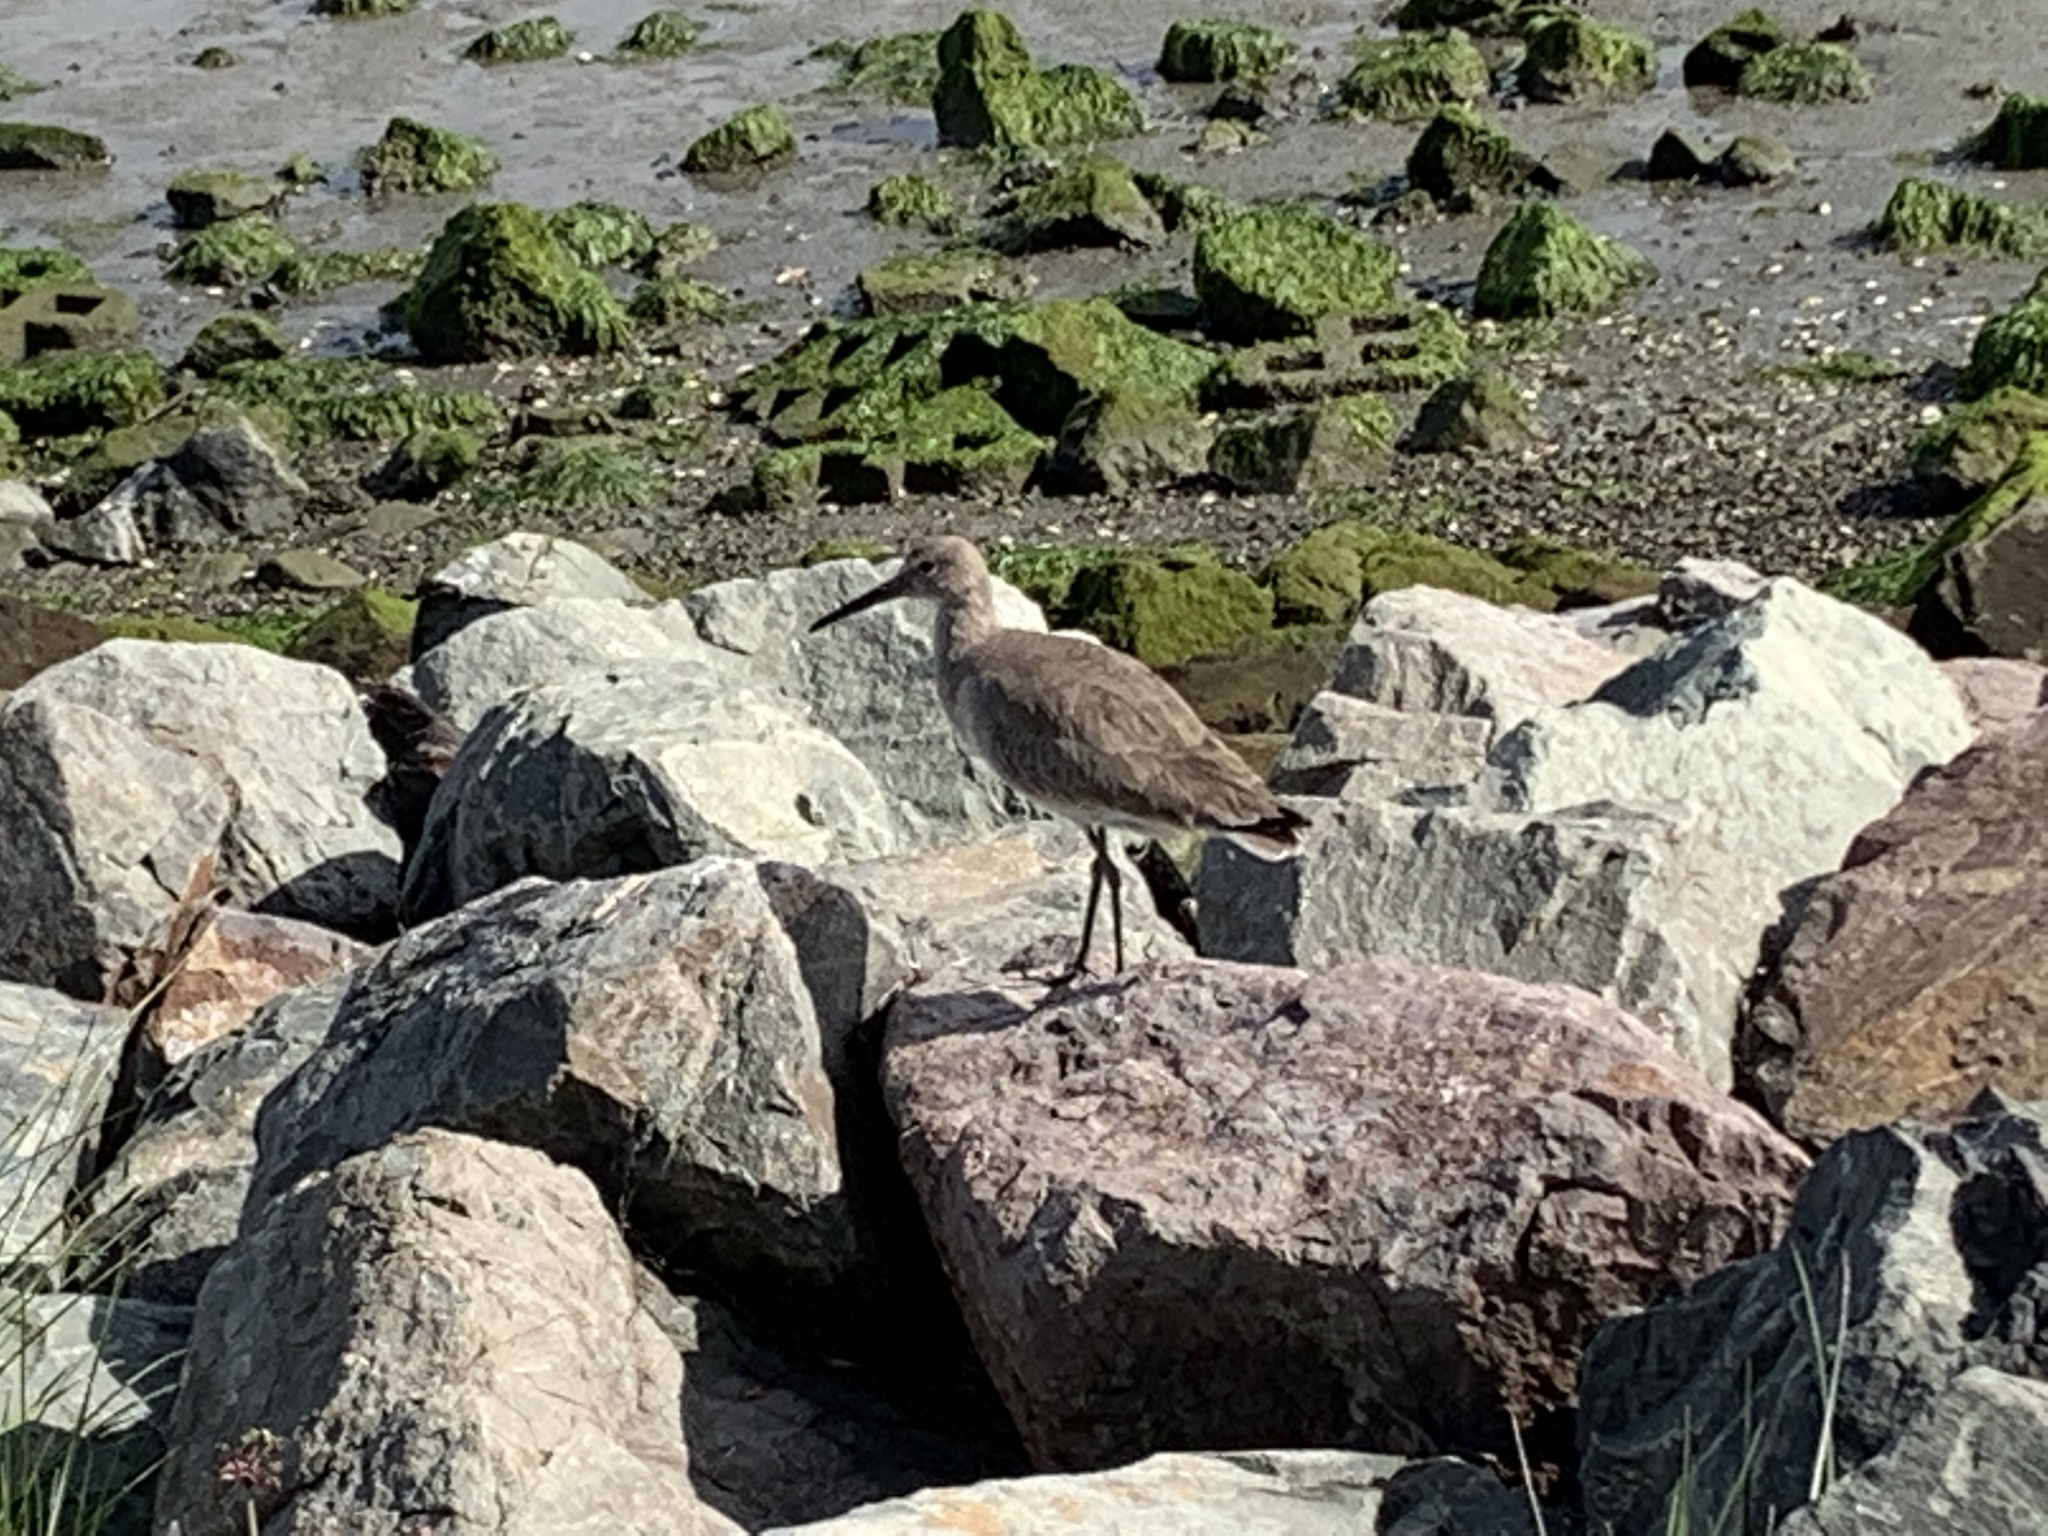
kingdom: Animalia
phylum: Chordata
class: Aves
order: Charadriiformes
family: Scolopacidae
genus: Tringa
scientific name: Tringa semipalmata
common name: Willet
